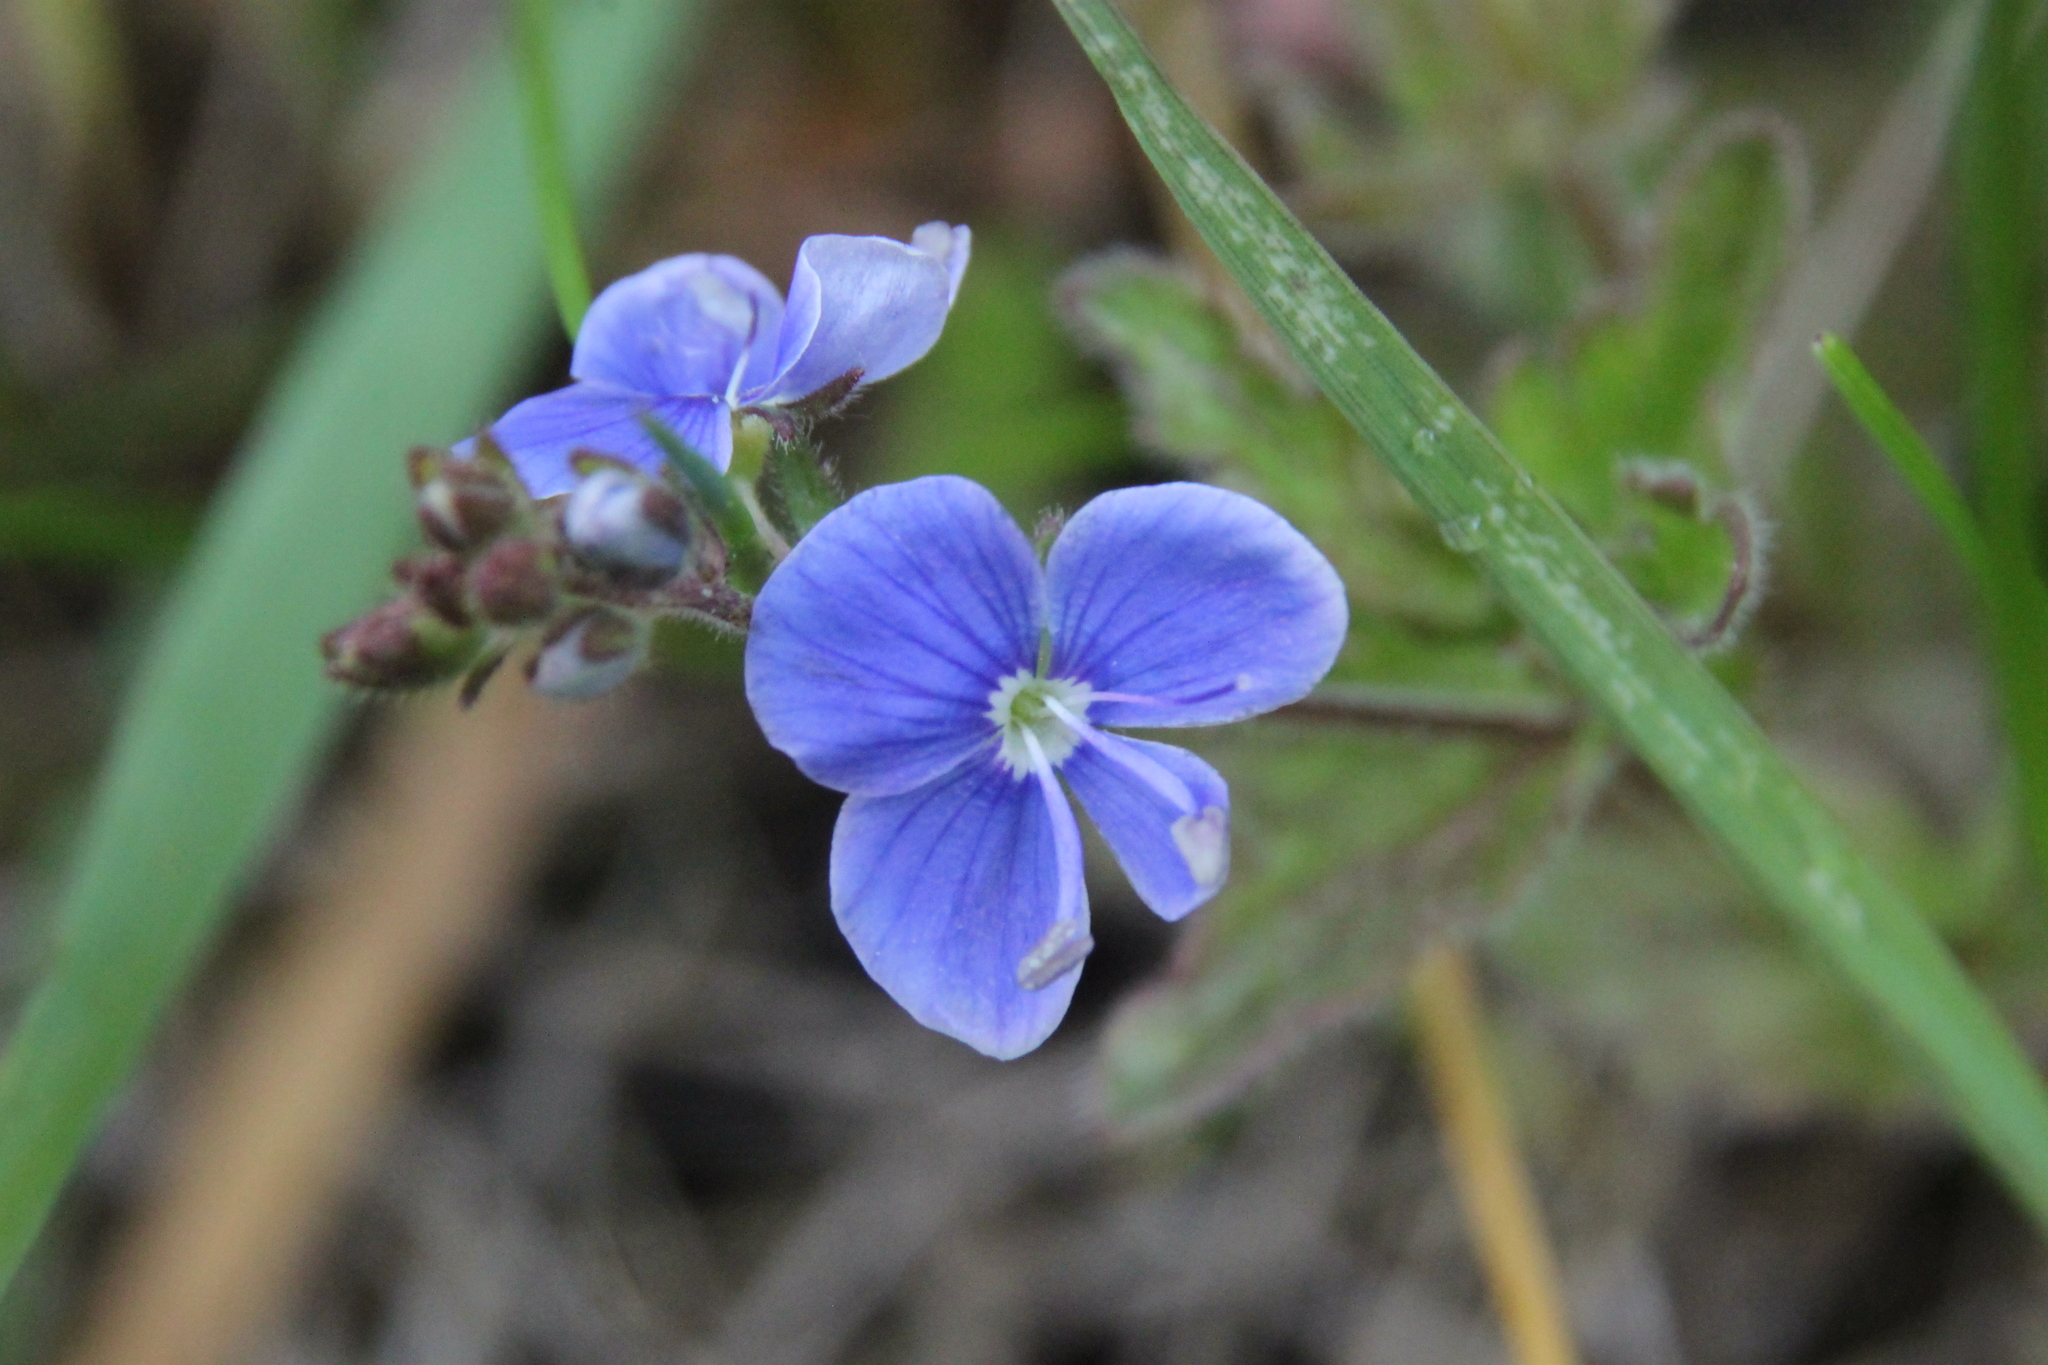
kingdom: Plantae
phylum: Tracheophyta
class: Magnoliopsida
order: Lamiales
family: Plantaginaceae
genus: Veronica
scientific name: Veronica chamaedrys
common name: Germander speedwell
